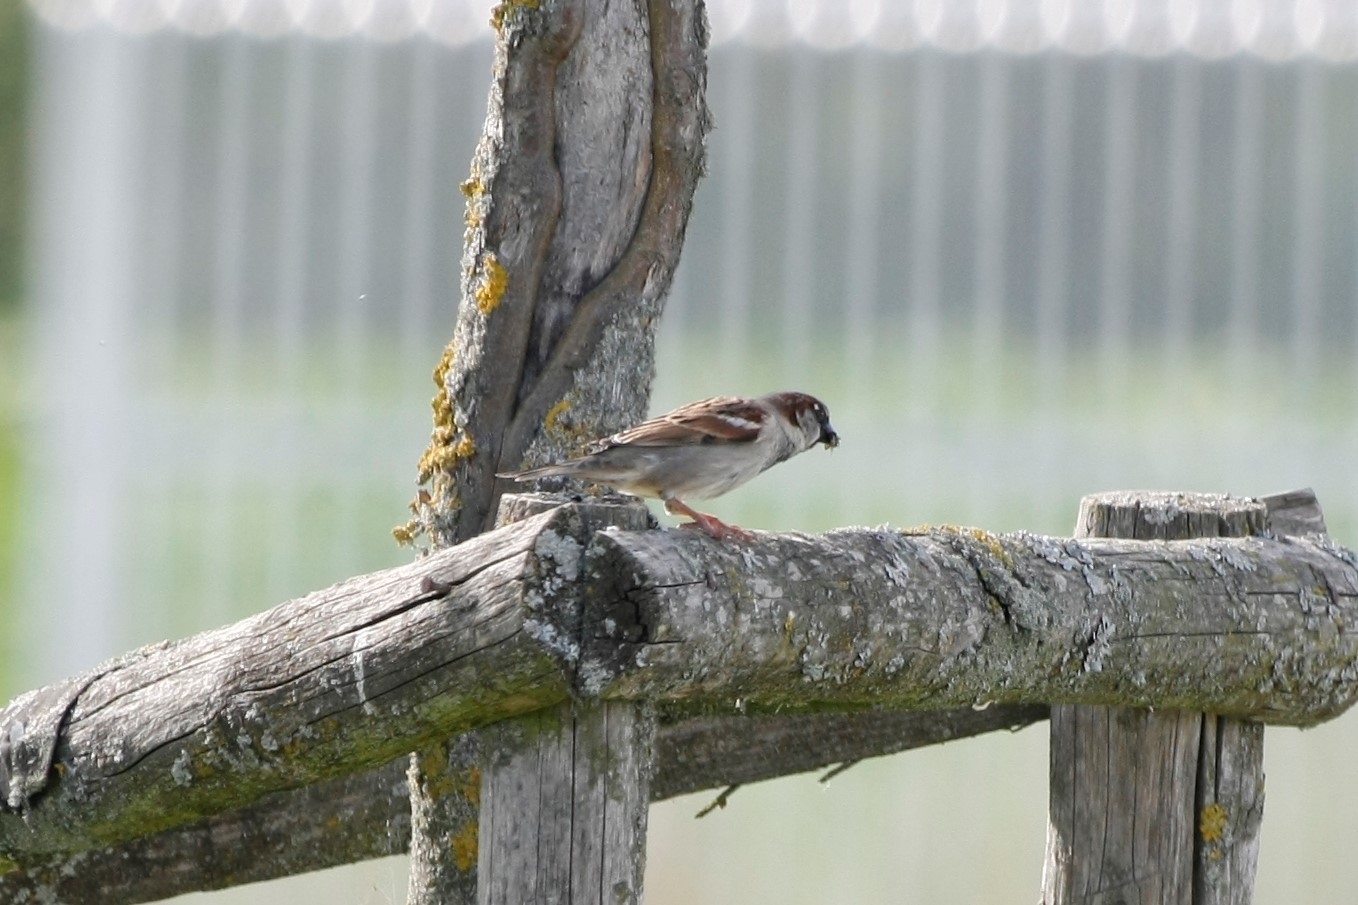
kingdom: Animalia
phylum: Chordata
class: Aves
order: Passeriformes
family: Passeridae
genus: Passer
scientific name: Passer domesticus
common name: House sparrow
